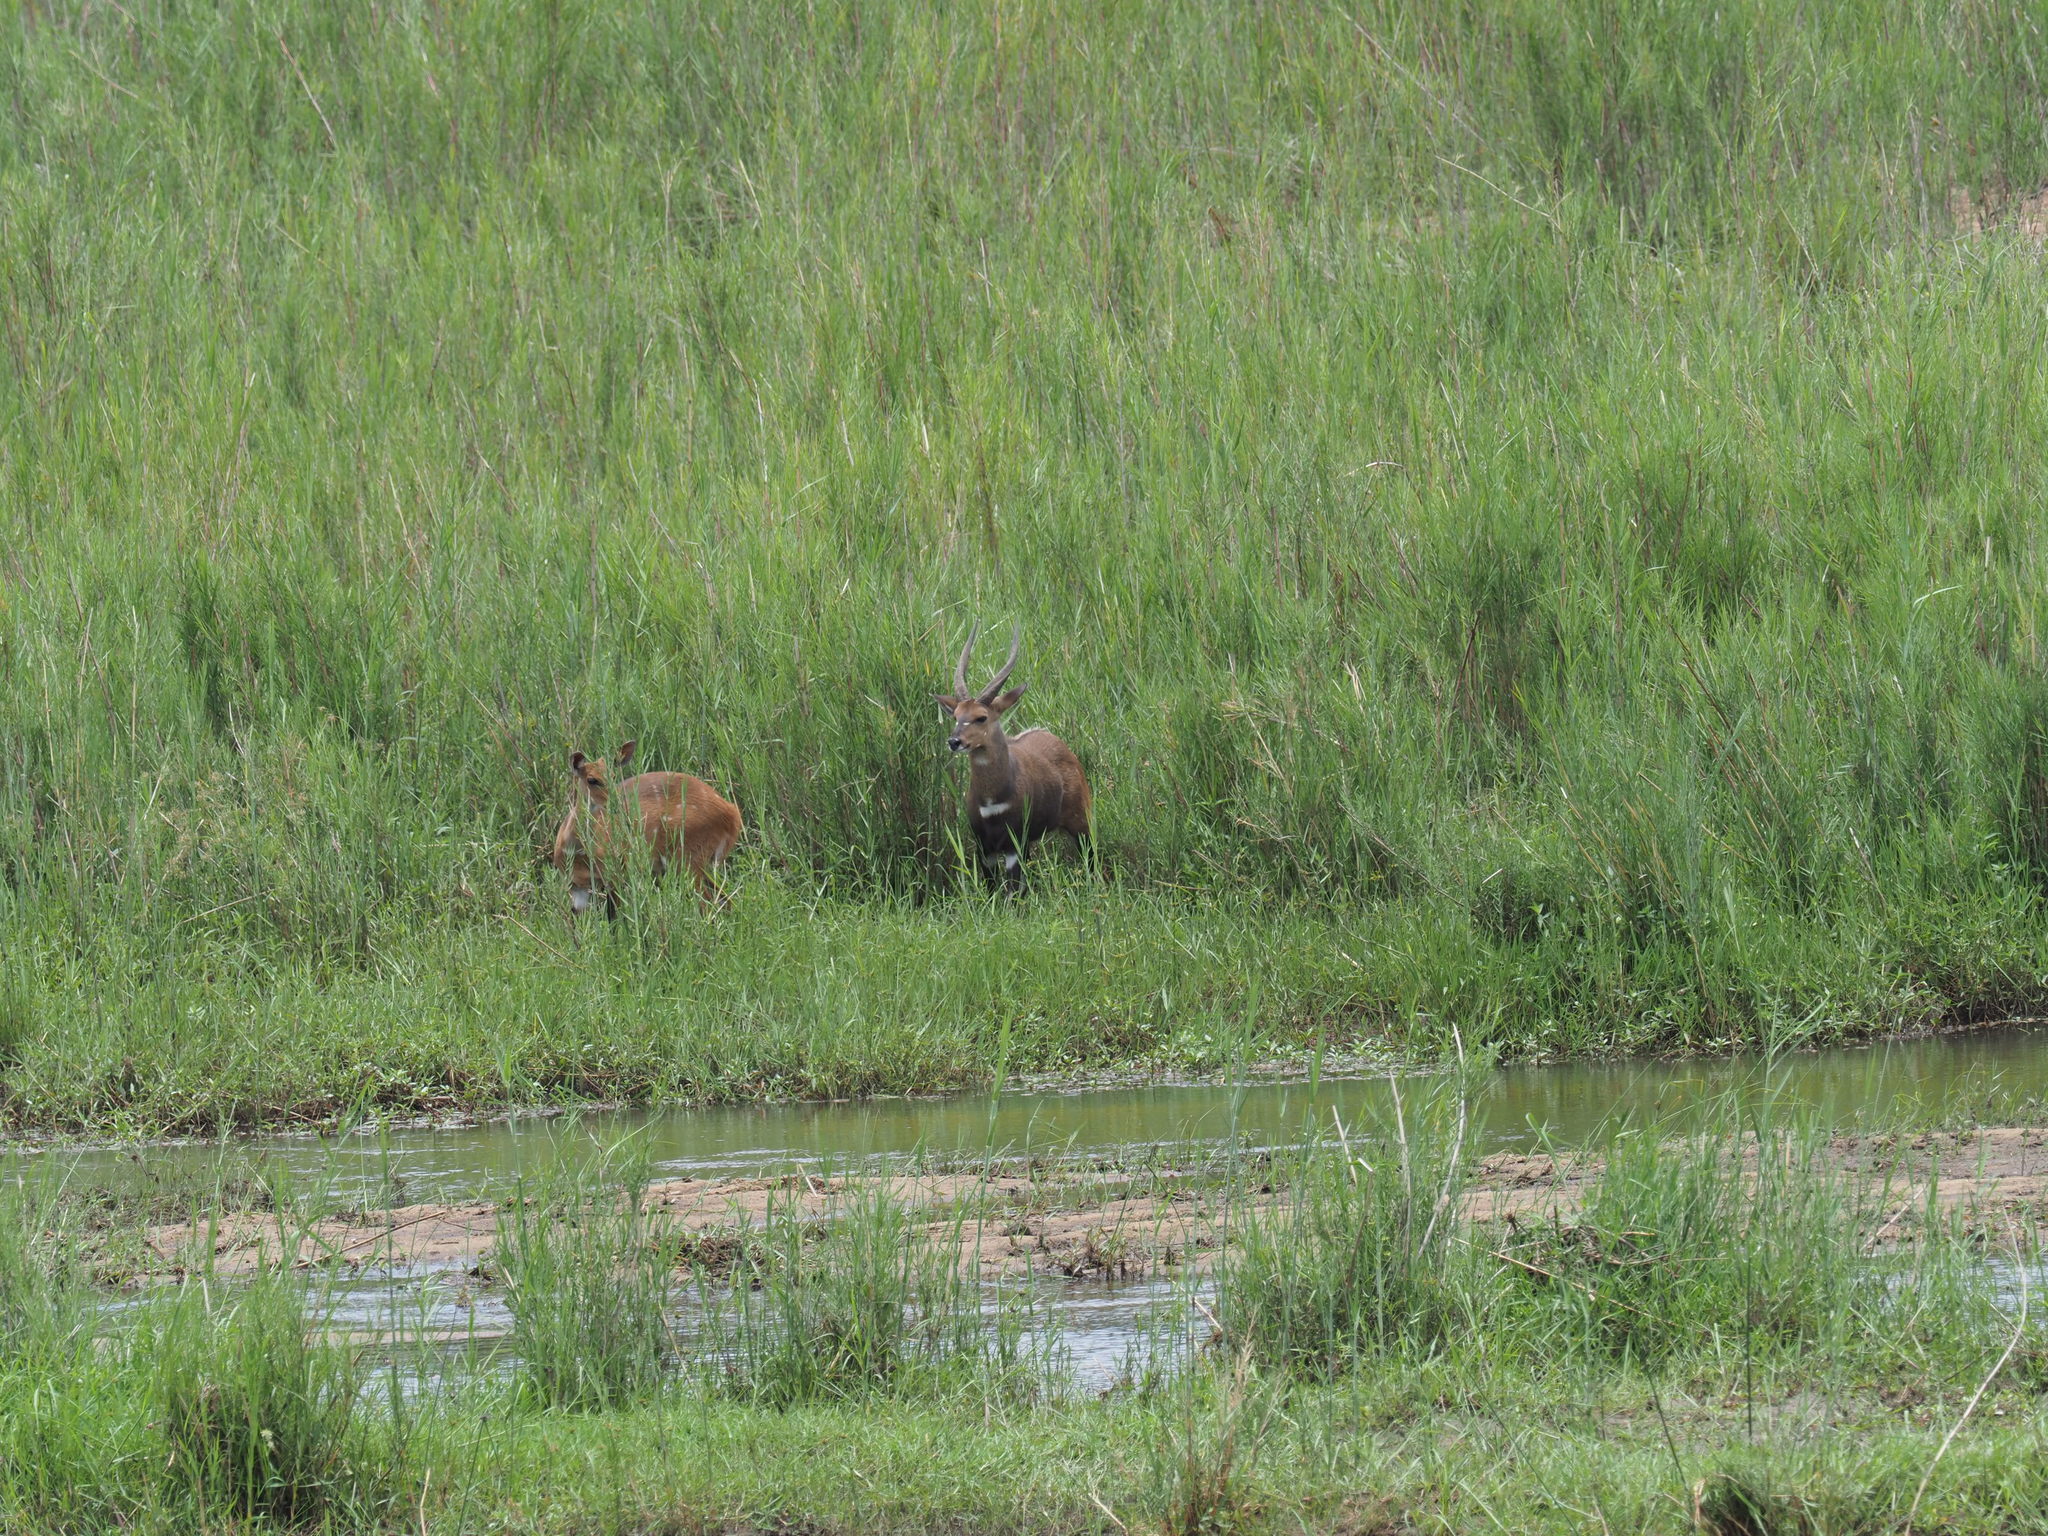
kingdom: Animalia
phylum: Chordata
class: Mammalia
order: Artiodactyla
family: Bovidae
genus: Tragelaphus
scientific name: Tragelaphus scriptus
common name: Bushbuck
